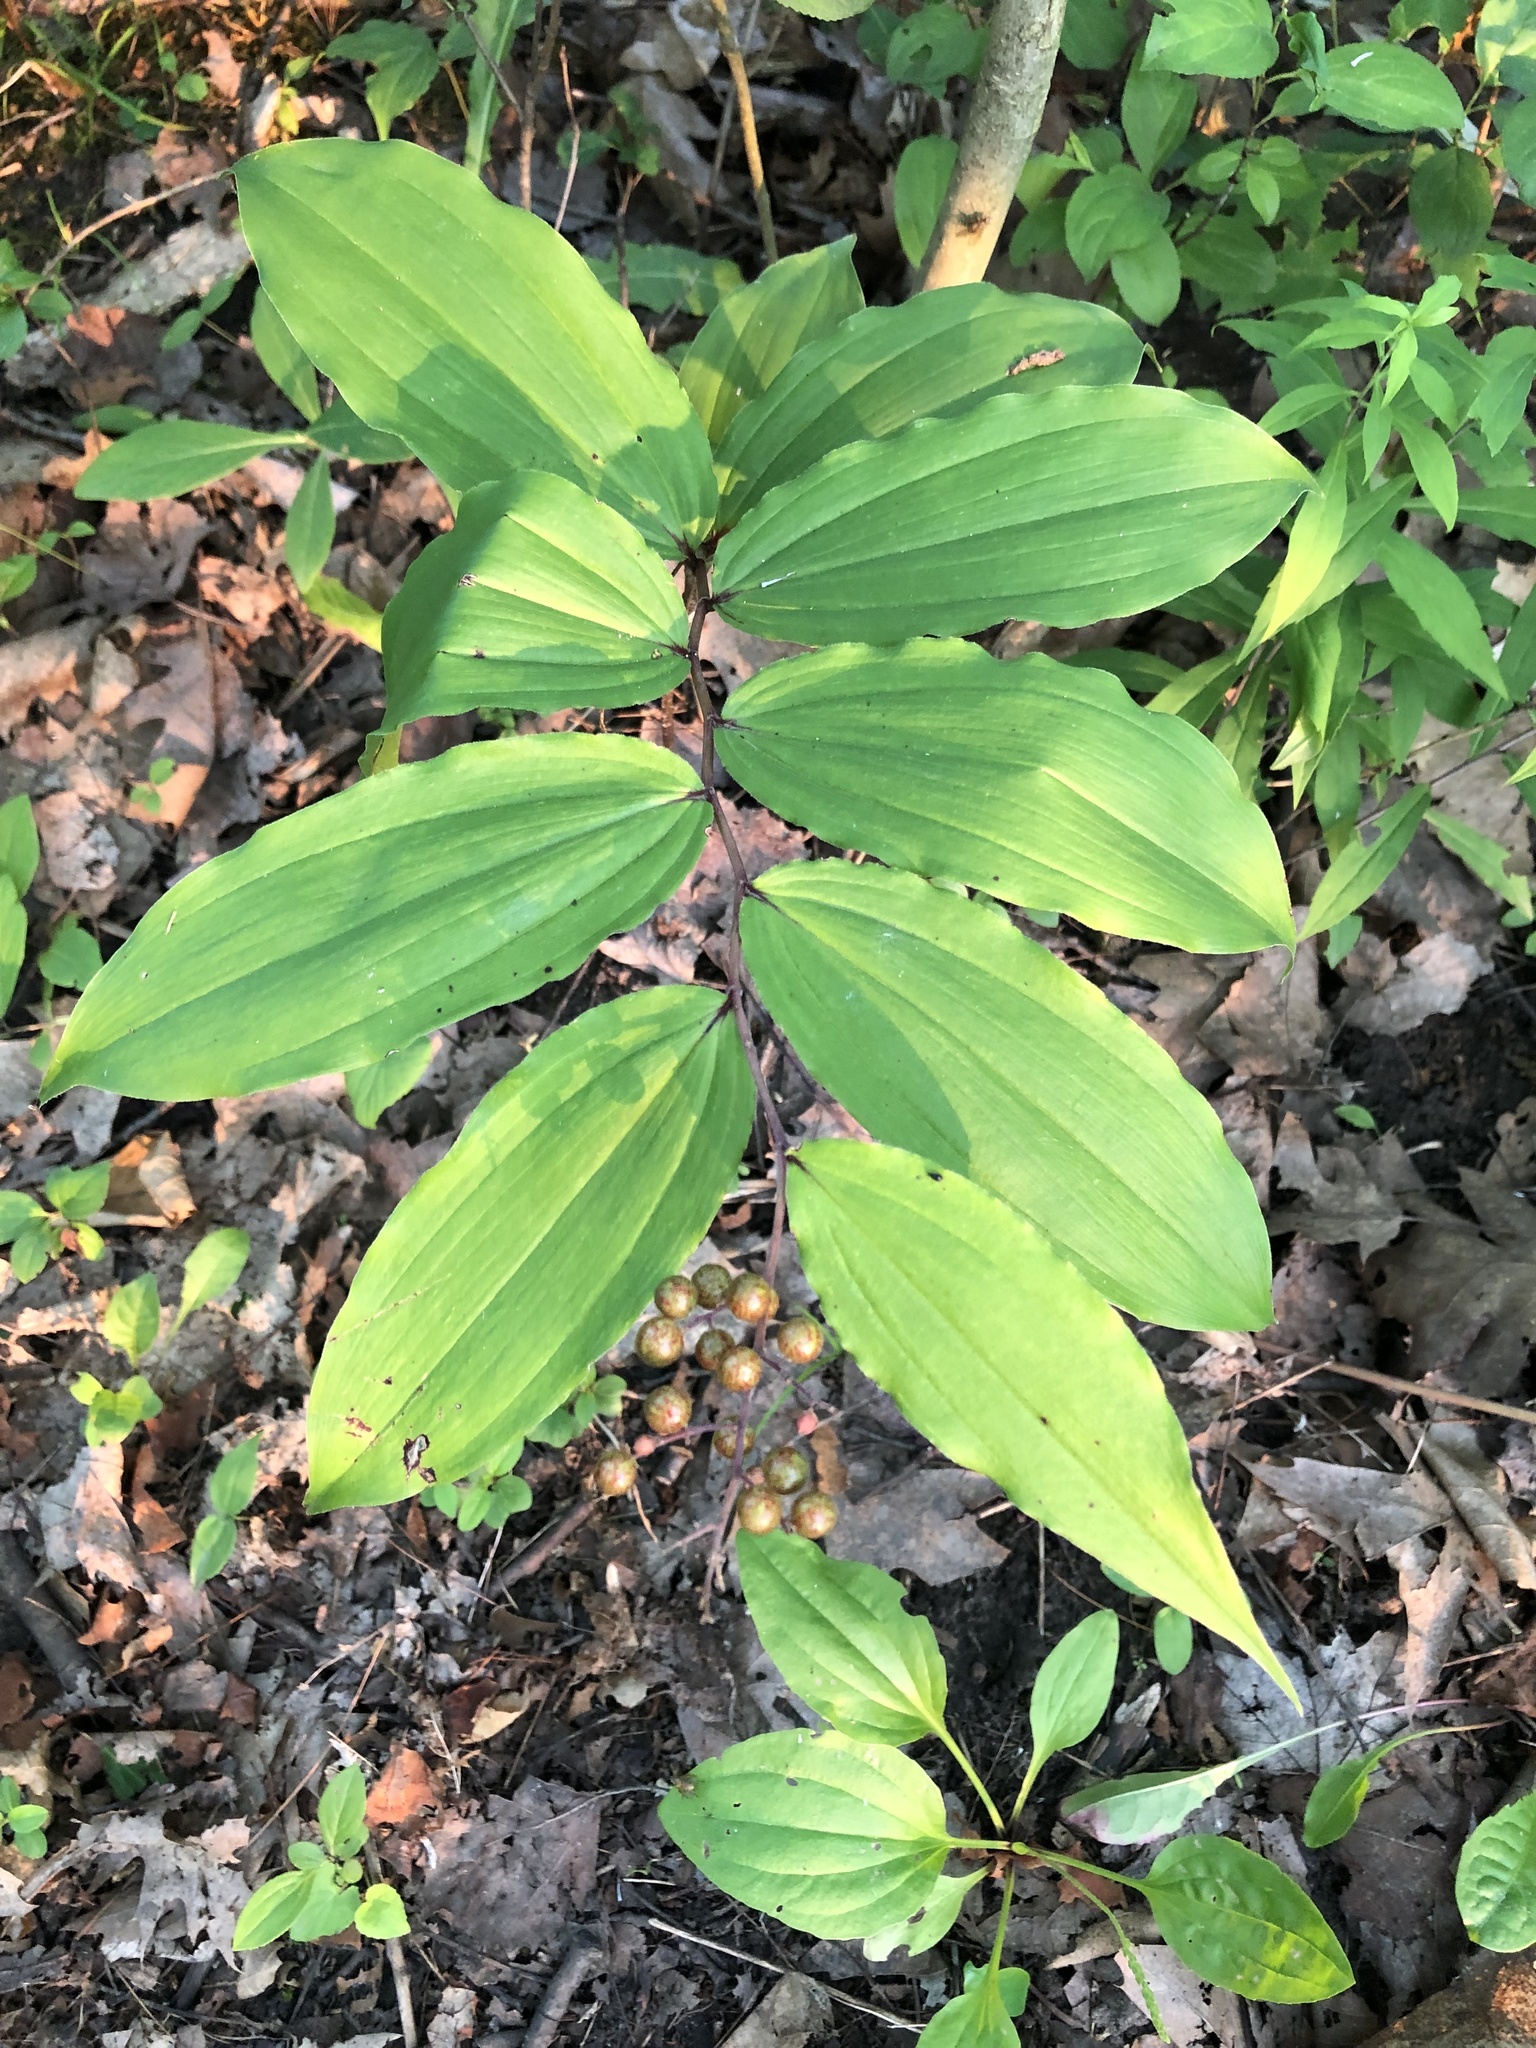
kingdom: Plantae
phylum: Tracheophyta
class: Liliopsida
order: Asparagales
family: Asparagaceae
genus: Maianthemum
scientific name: Maianthemum racemosum
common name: False spikenard
